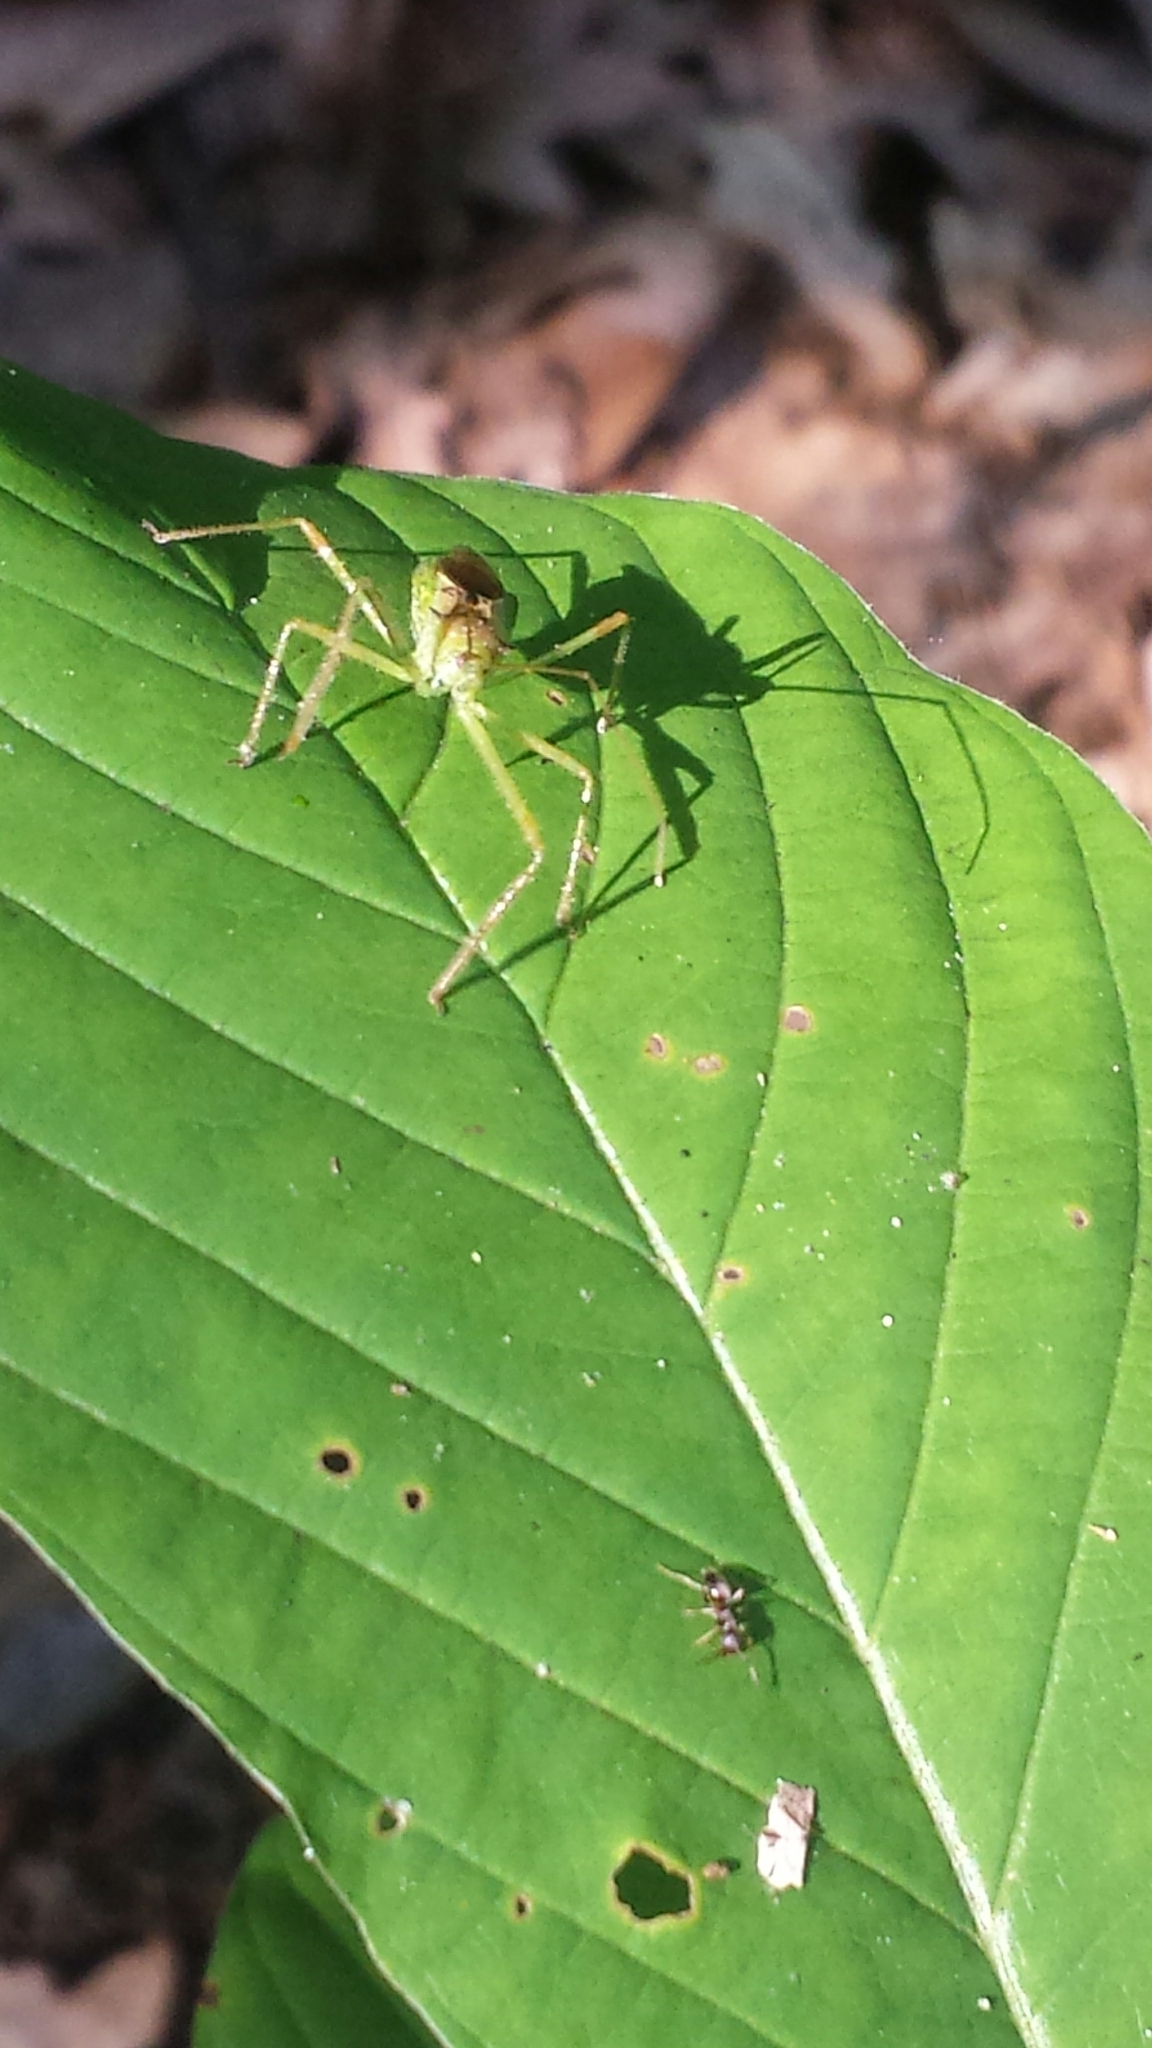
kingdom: Animalia
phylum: Arthropoda
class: Insecta
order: Hemiptera
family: Reduviidae
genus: Zelus
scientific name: Zelus luridus
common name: Pale green assassin bug
